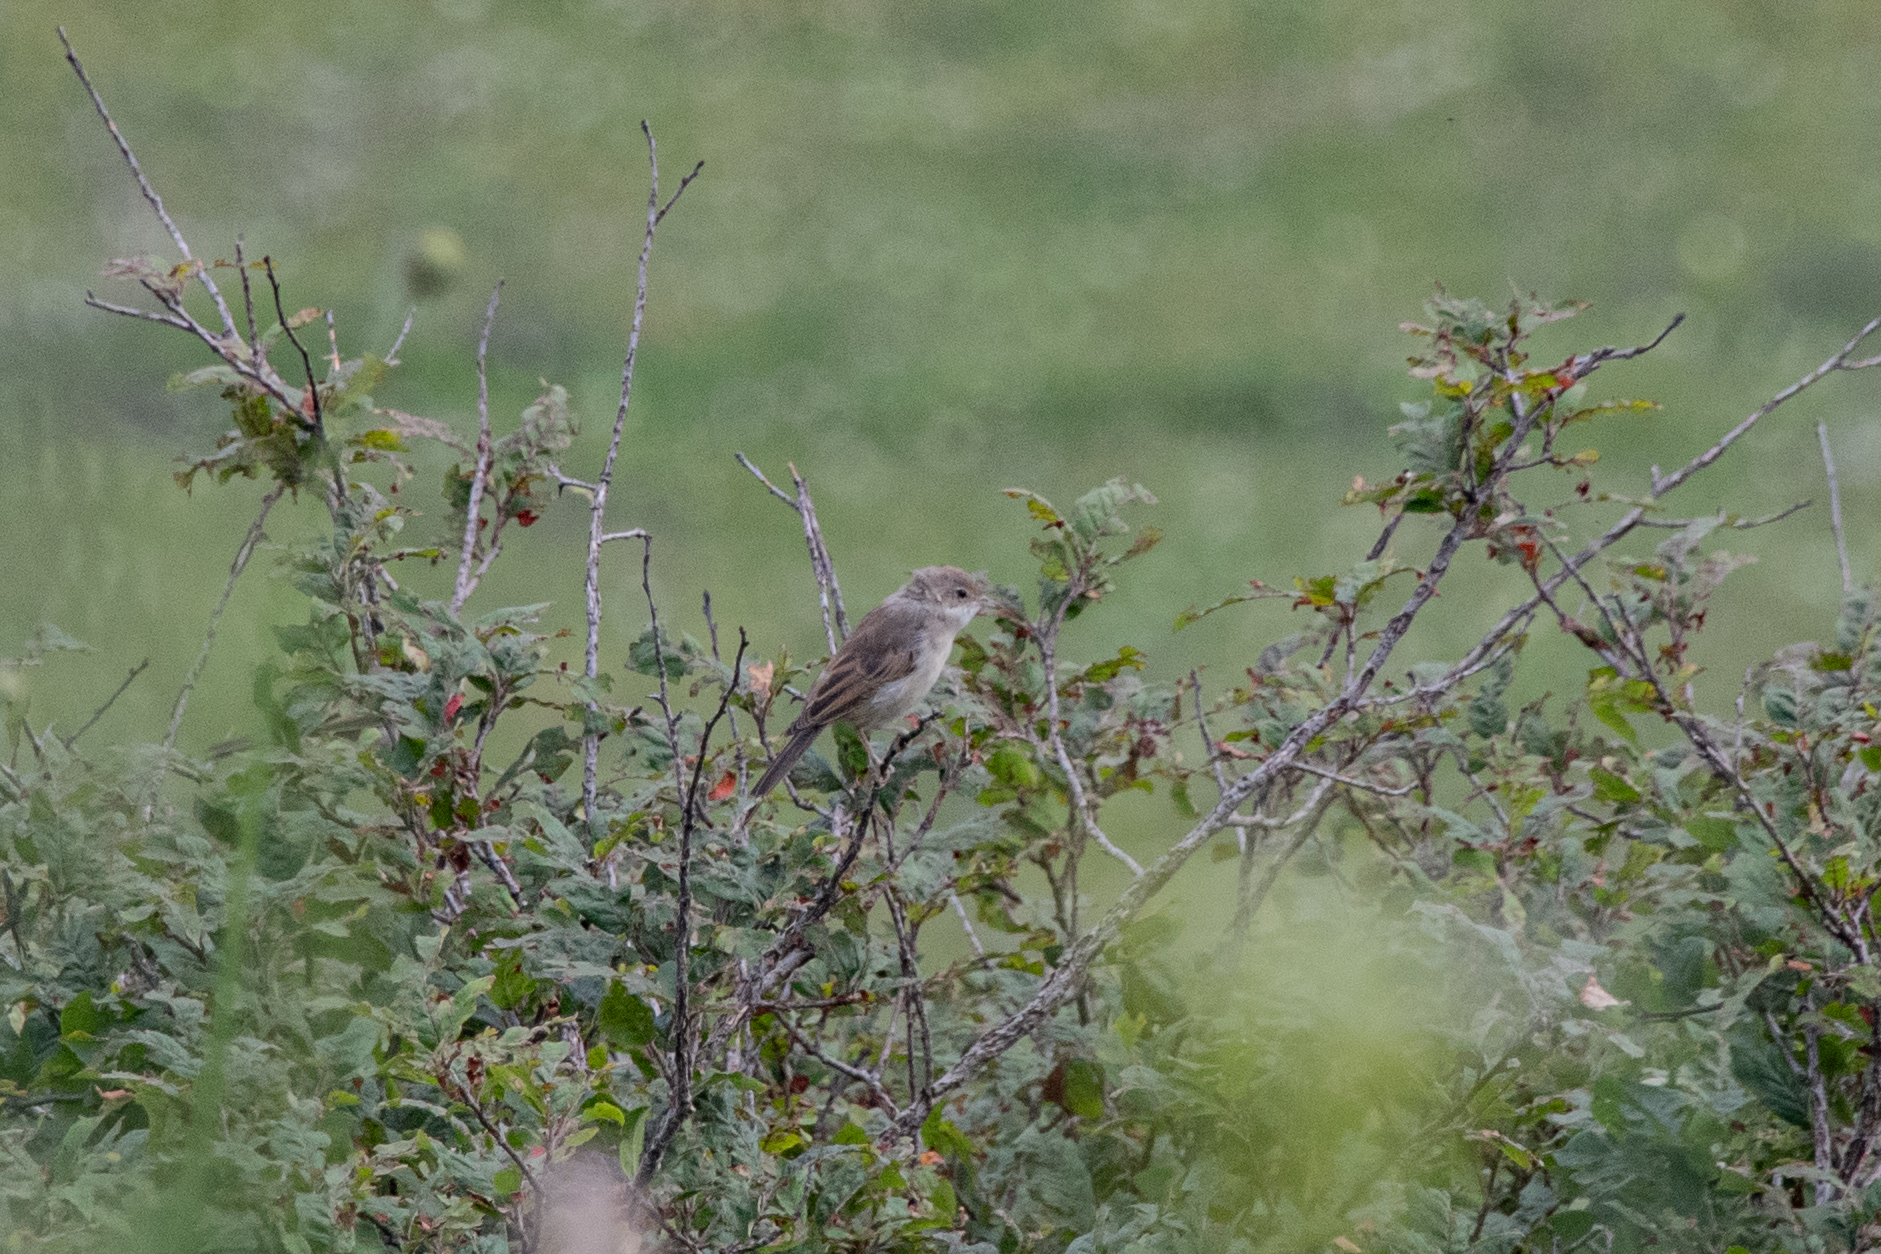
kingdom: Animalia
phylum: Chordata
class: Aves
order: Passeriformes
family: Sylviidae
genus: Sylvia
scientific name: Sylvia communis
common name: Common whitethroat
